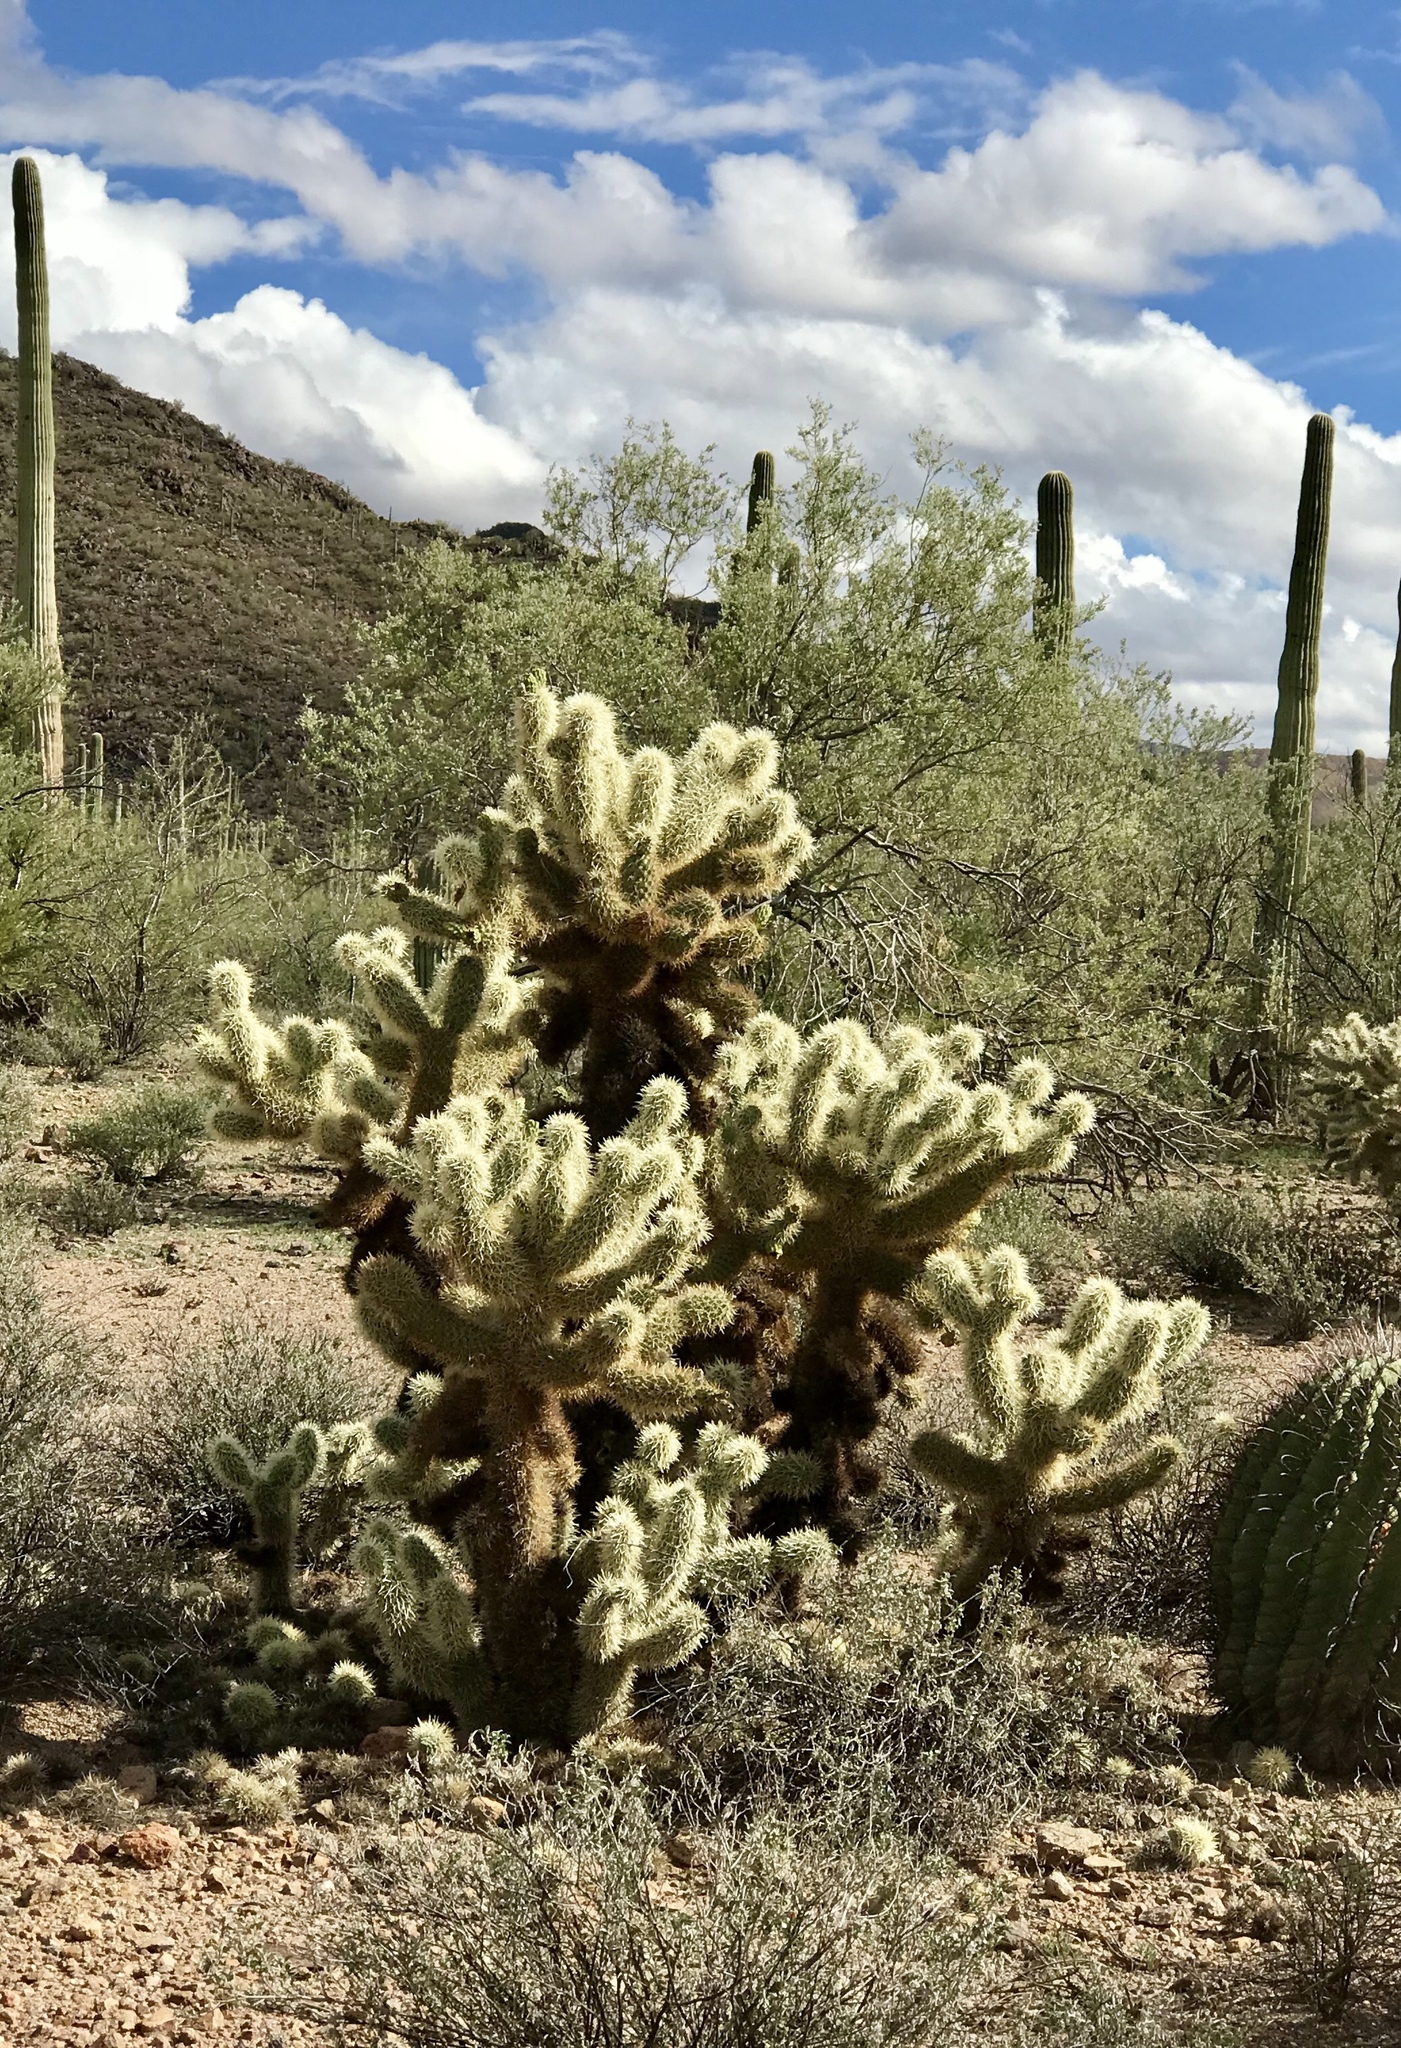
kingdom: Plantae
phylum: Tracheophyta
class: Magnoliopsida
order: Caryophyllales
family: Cactaceae
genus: Cylindropuntia
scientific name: Cylindropuntia fosbergii
